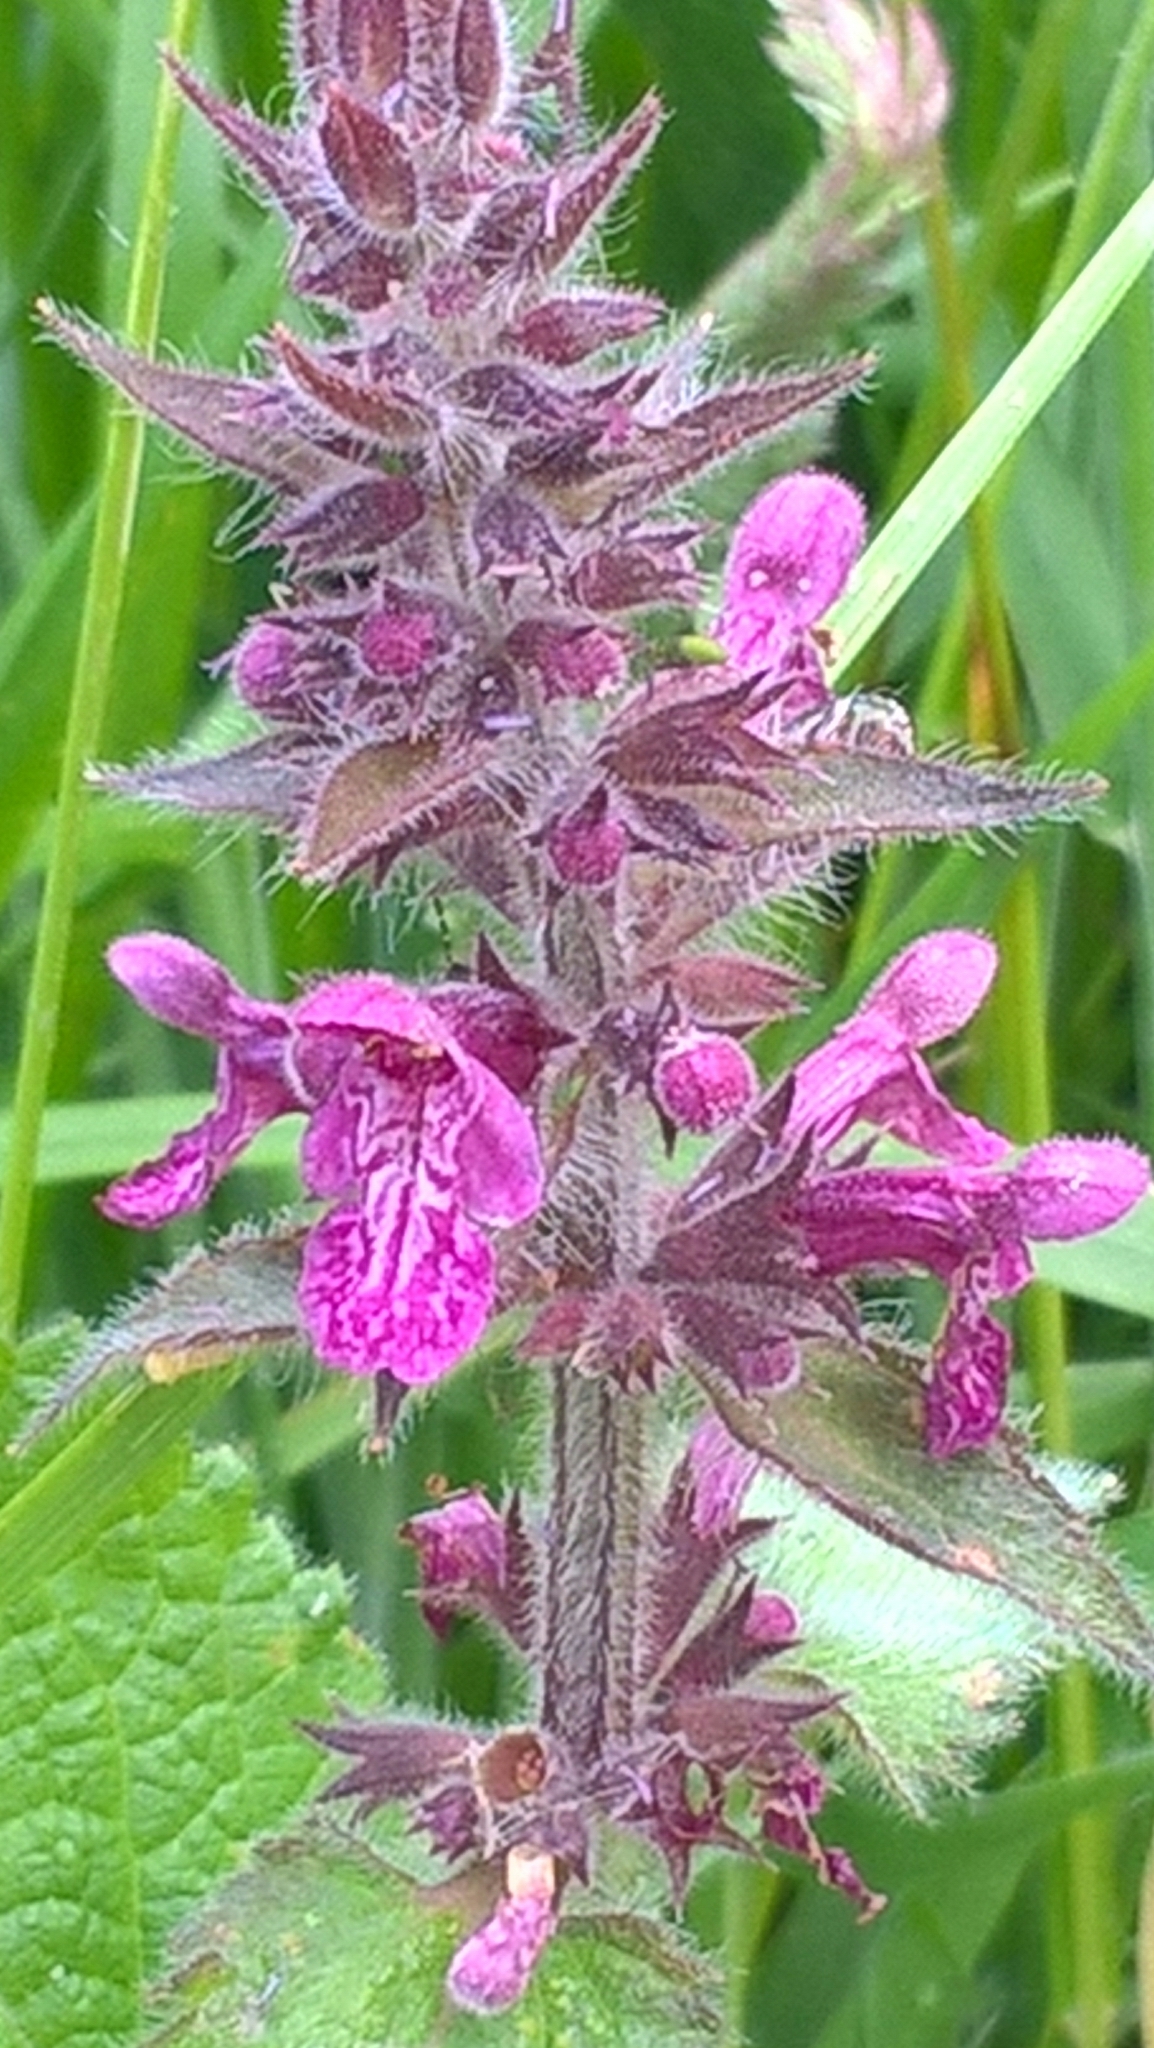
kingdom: Plantae
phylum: Tracheophyta
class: Magnoliopsida
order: Lamiales
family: Lamiaceae
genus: Stachys
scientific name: Stachys sylvatica
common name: Hedge woundwort
